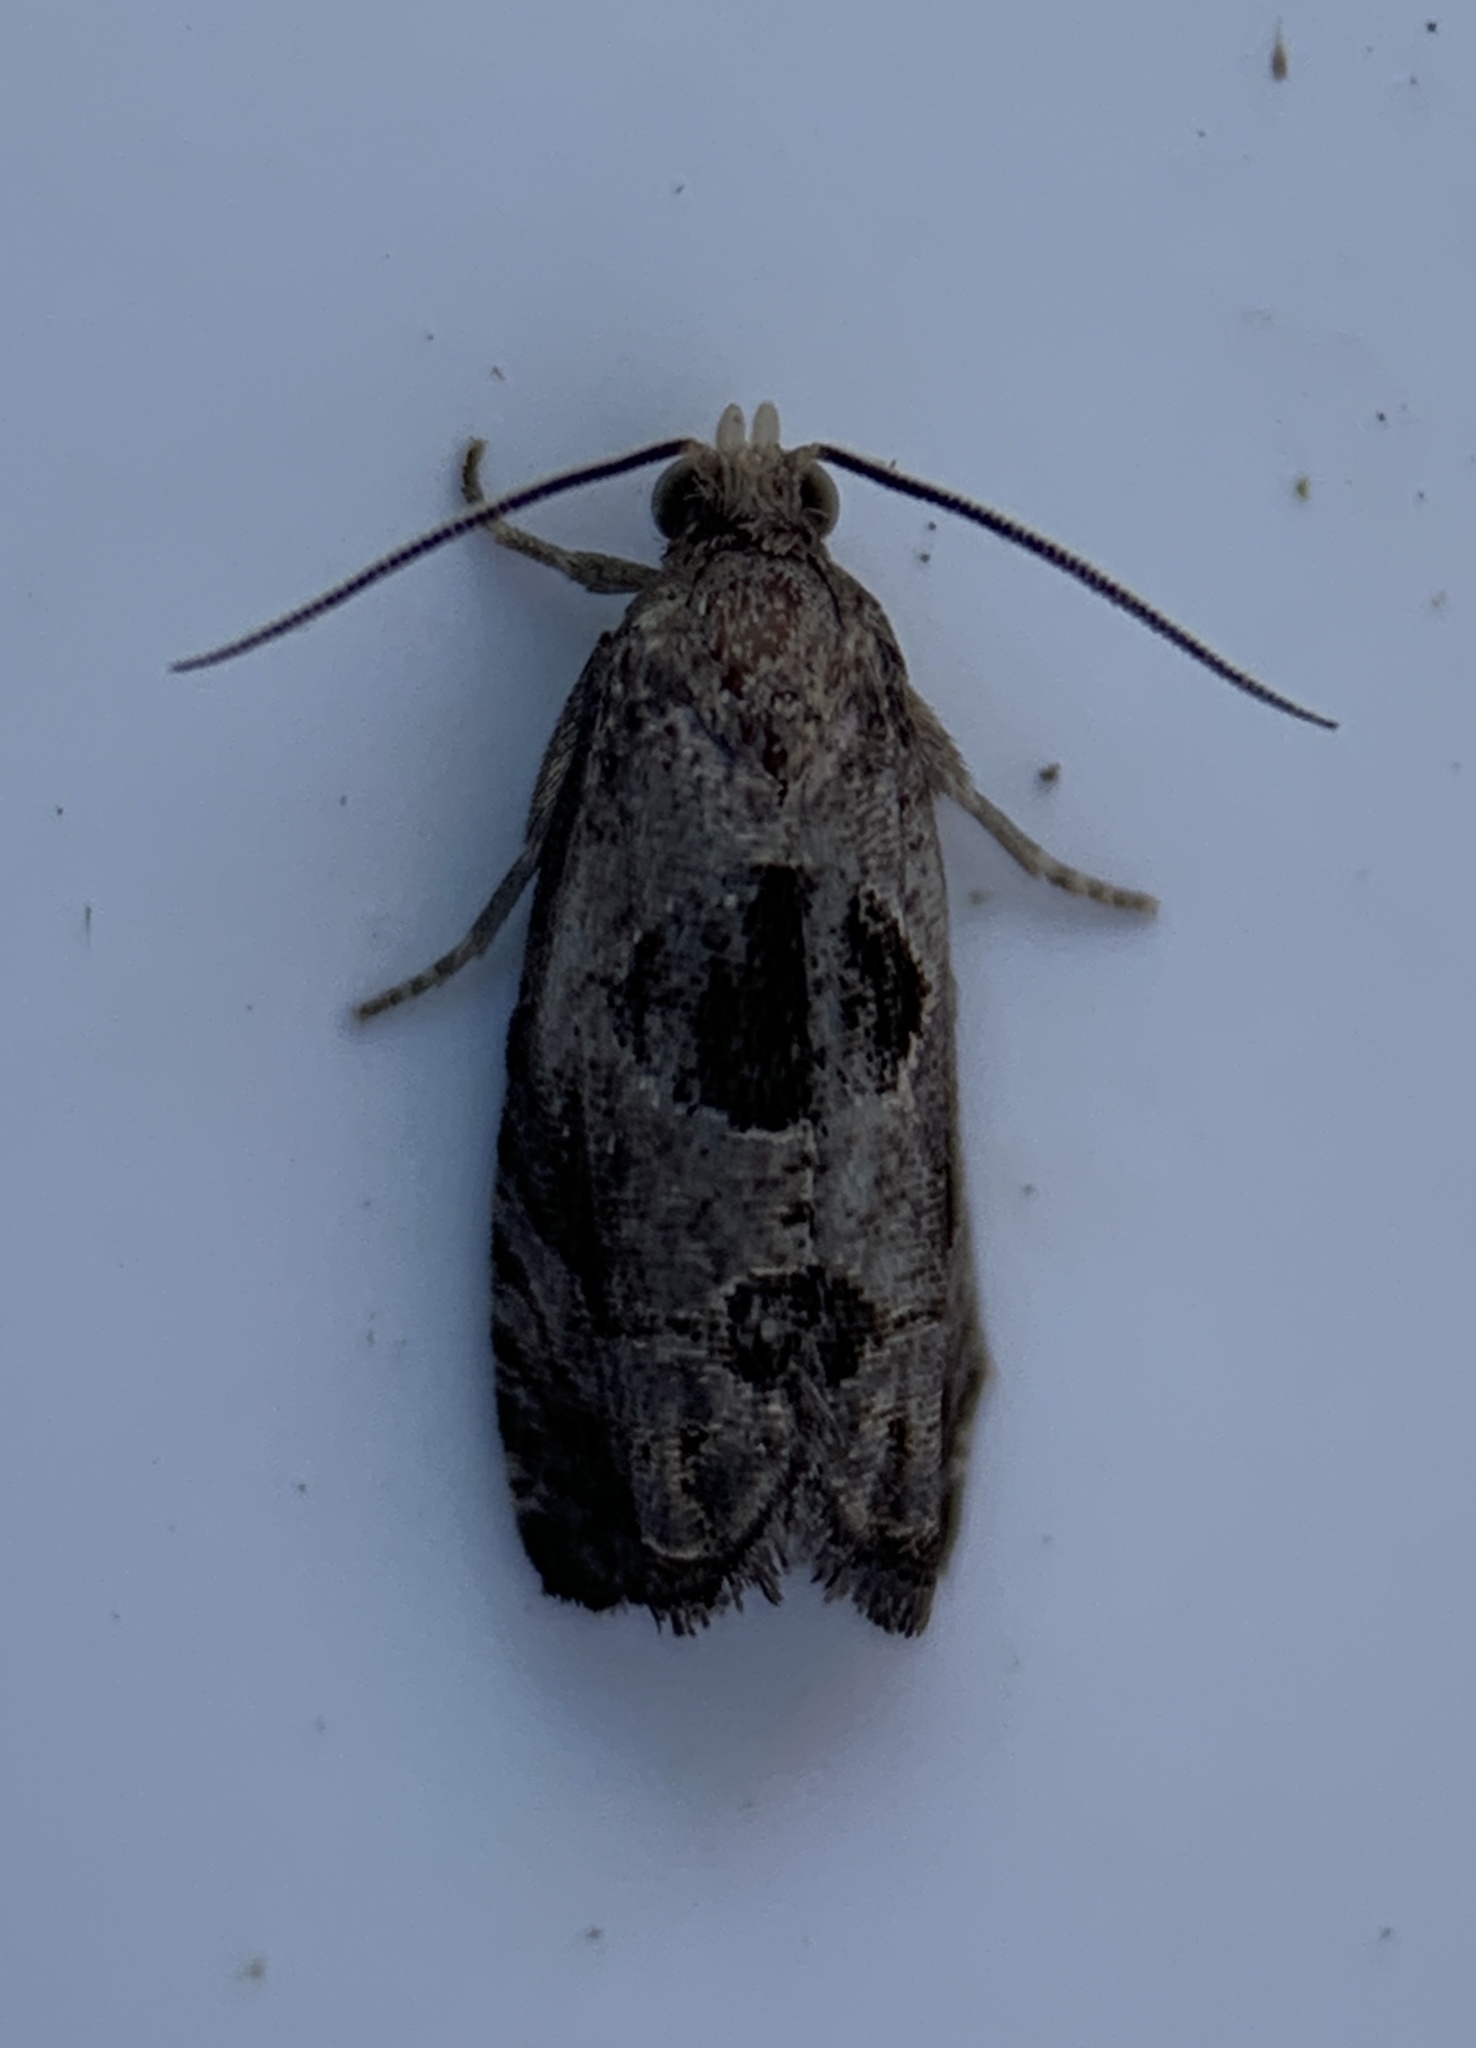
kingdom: Animalia
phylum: Arthropoda
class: Insecta
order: Lepidoptera
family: Tortricidae
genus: Epiblema
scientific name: Epiblema brightonana
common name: Brighton's epiblema moth
